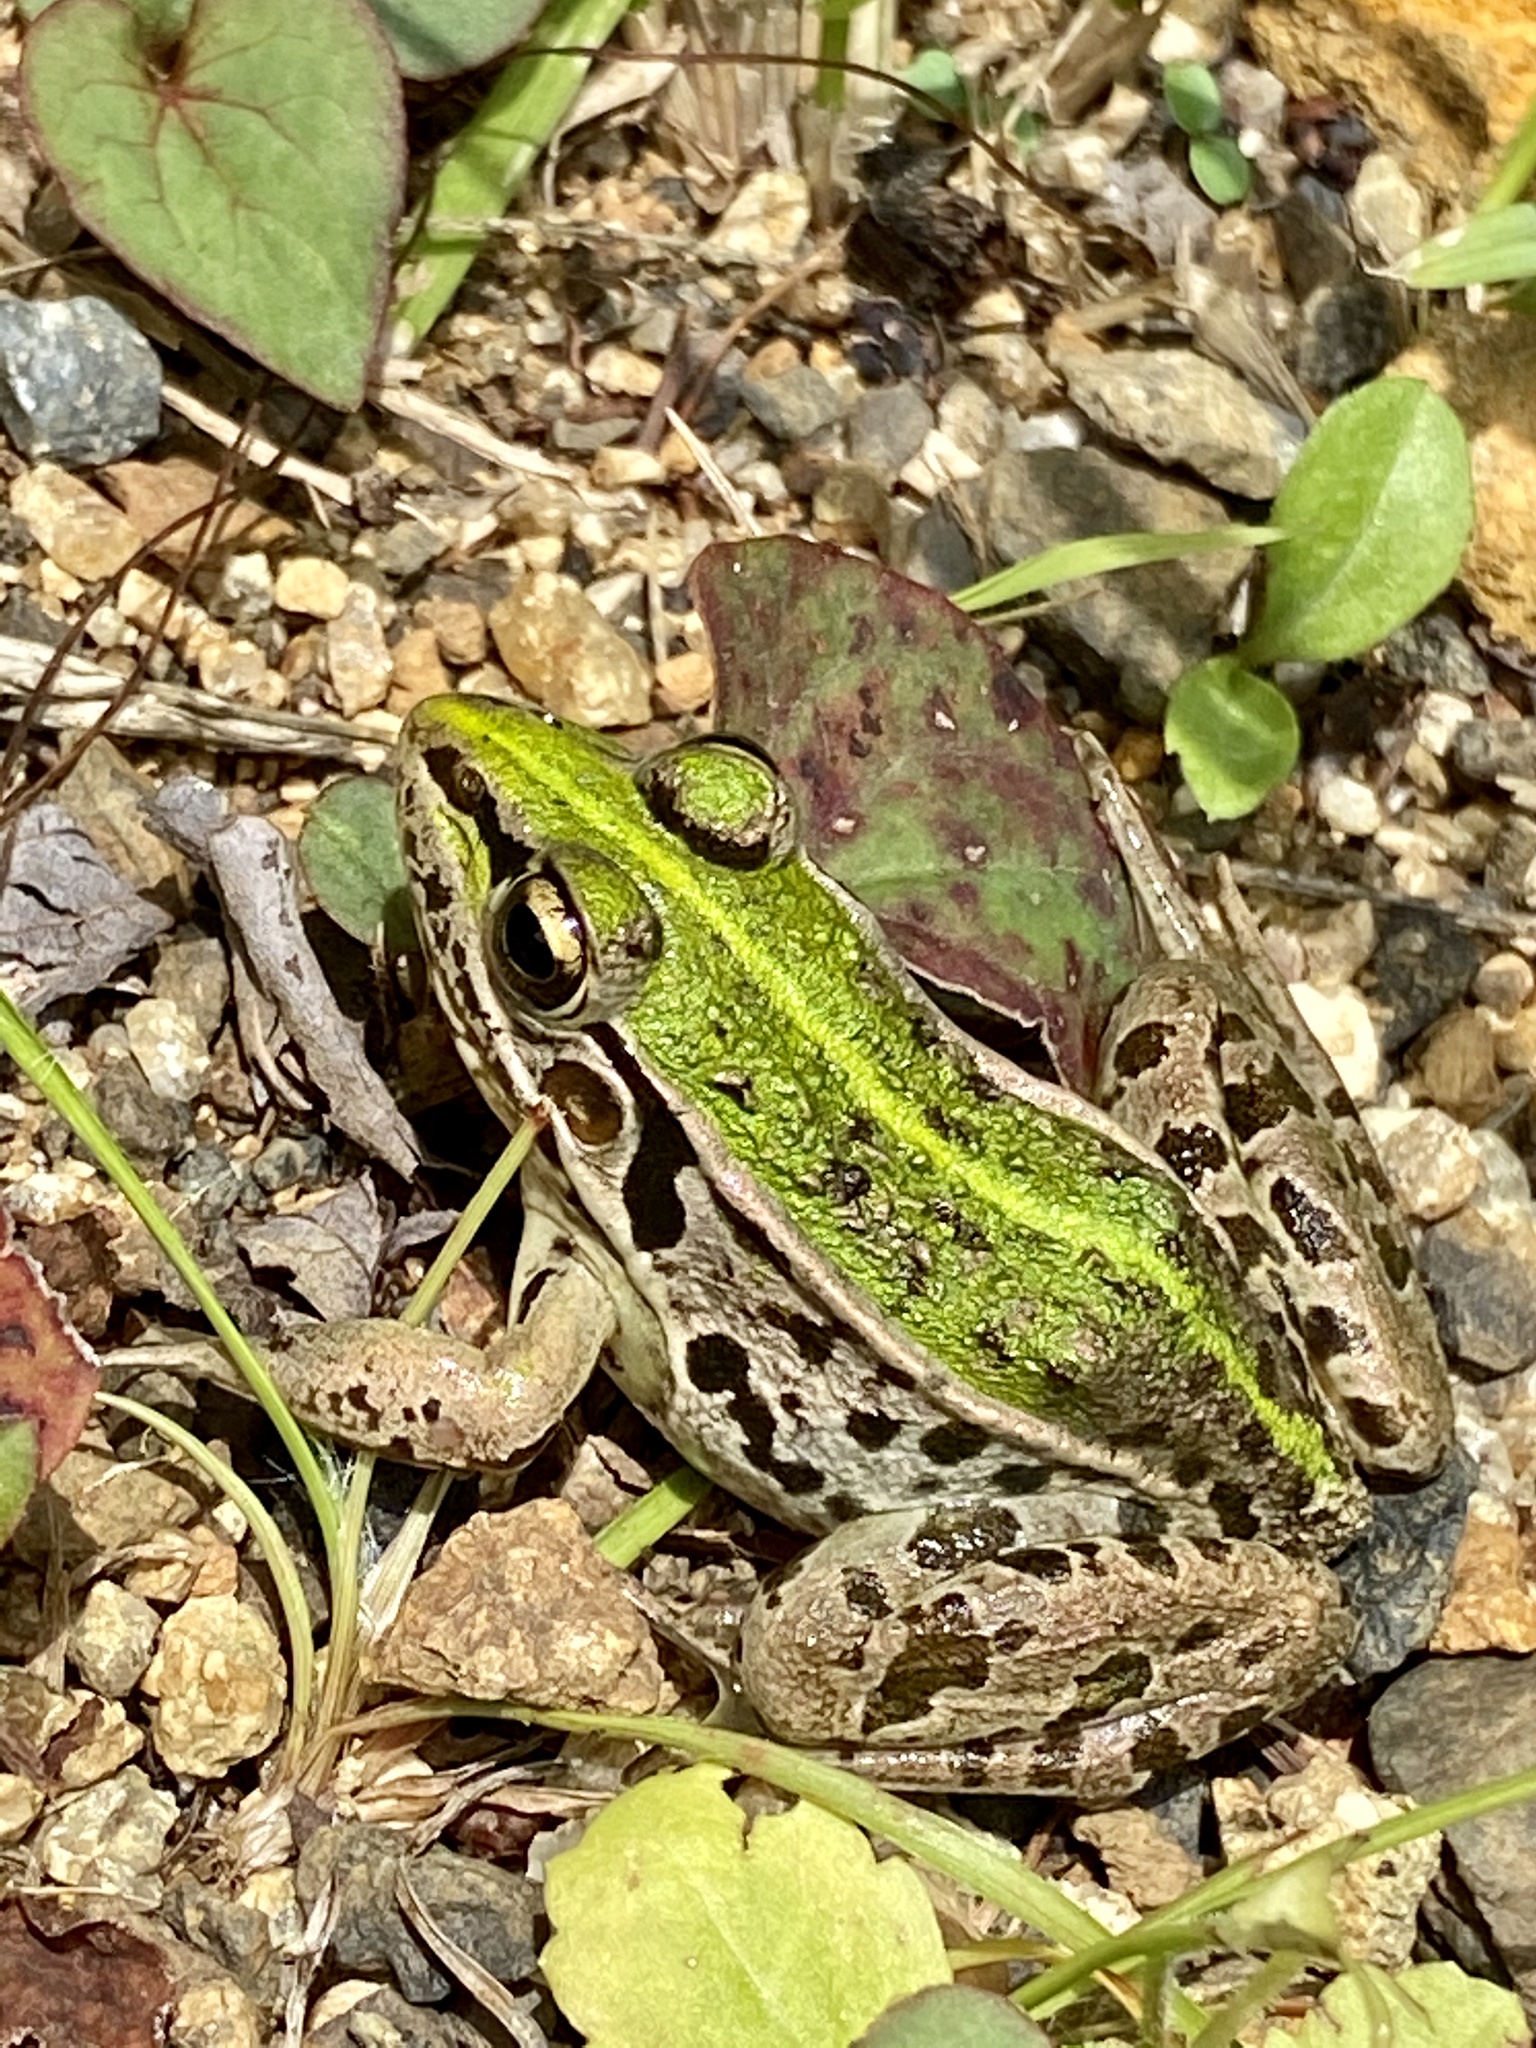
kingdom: Animalia
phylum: Chordata
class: Amphibia
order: Anura
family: Ranidae
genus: Pelophylax
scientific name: Pelophylax nigromaculatus
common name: Black-spotted pond frog
